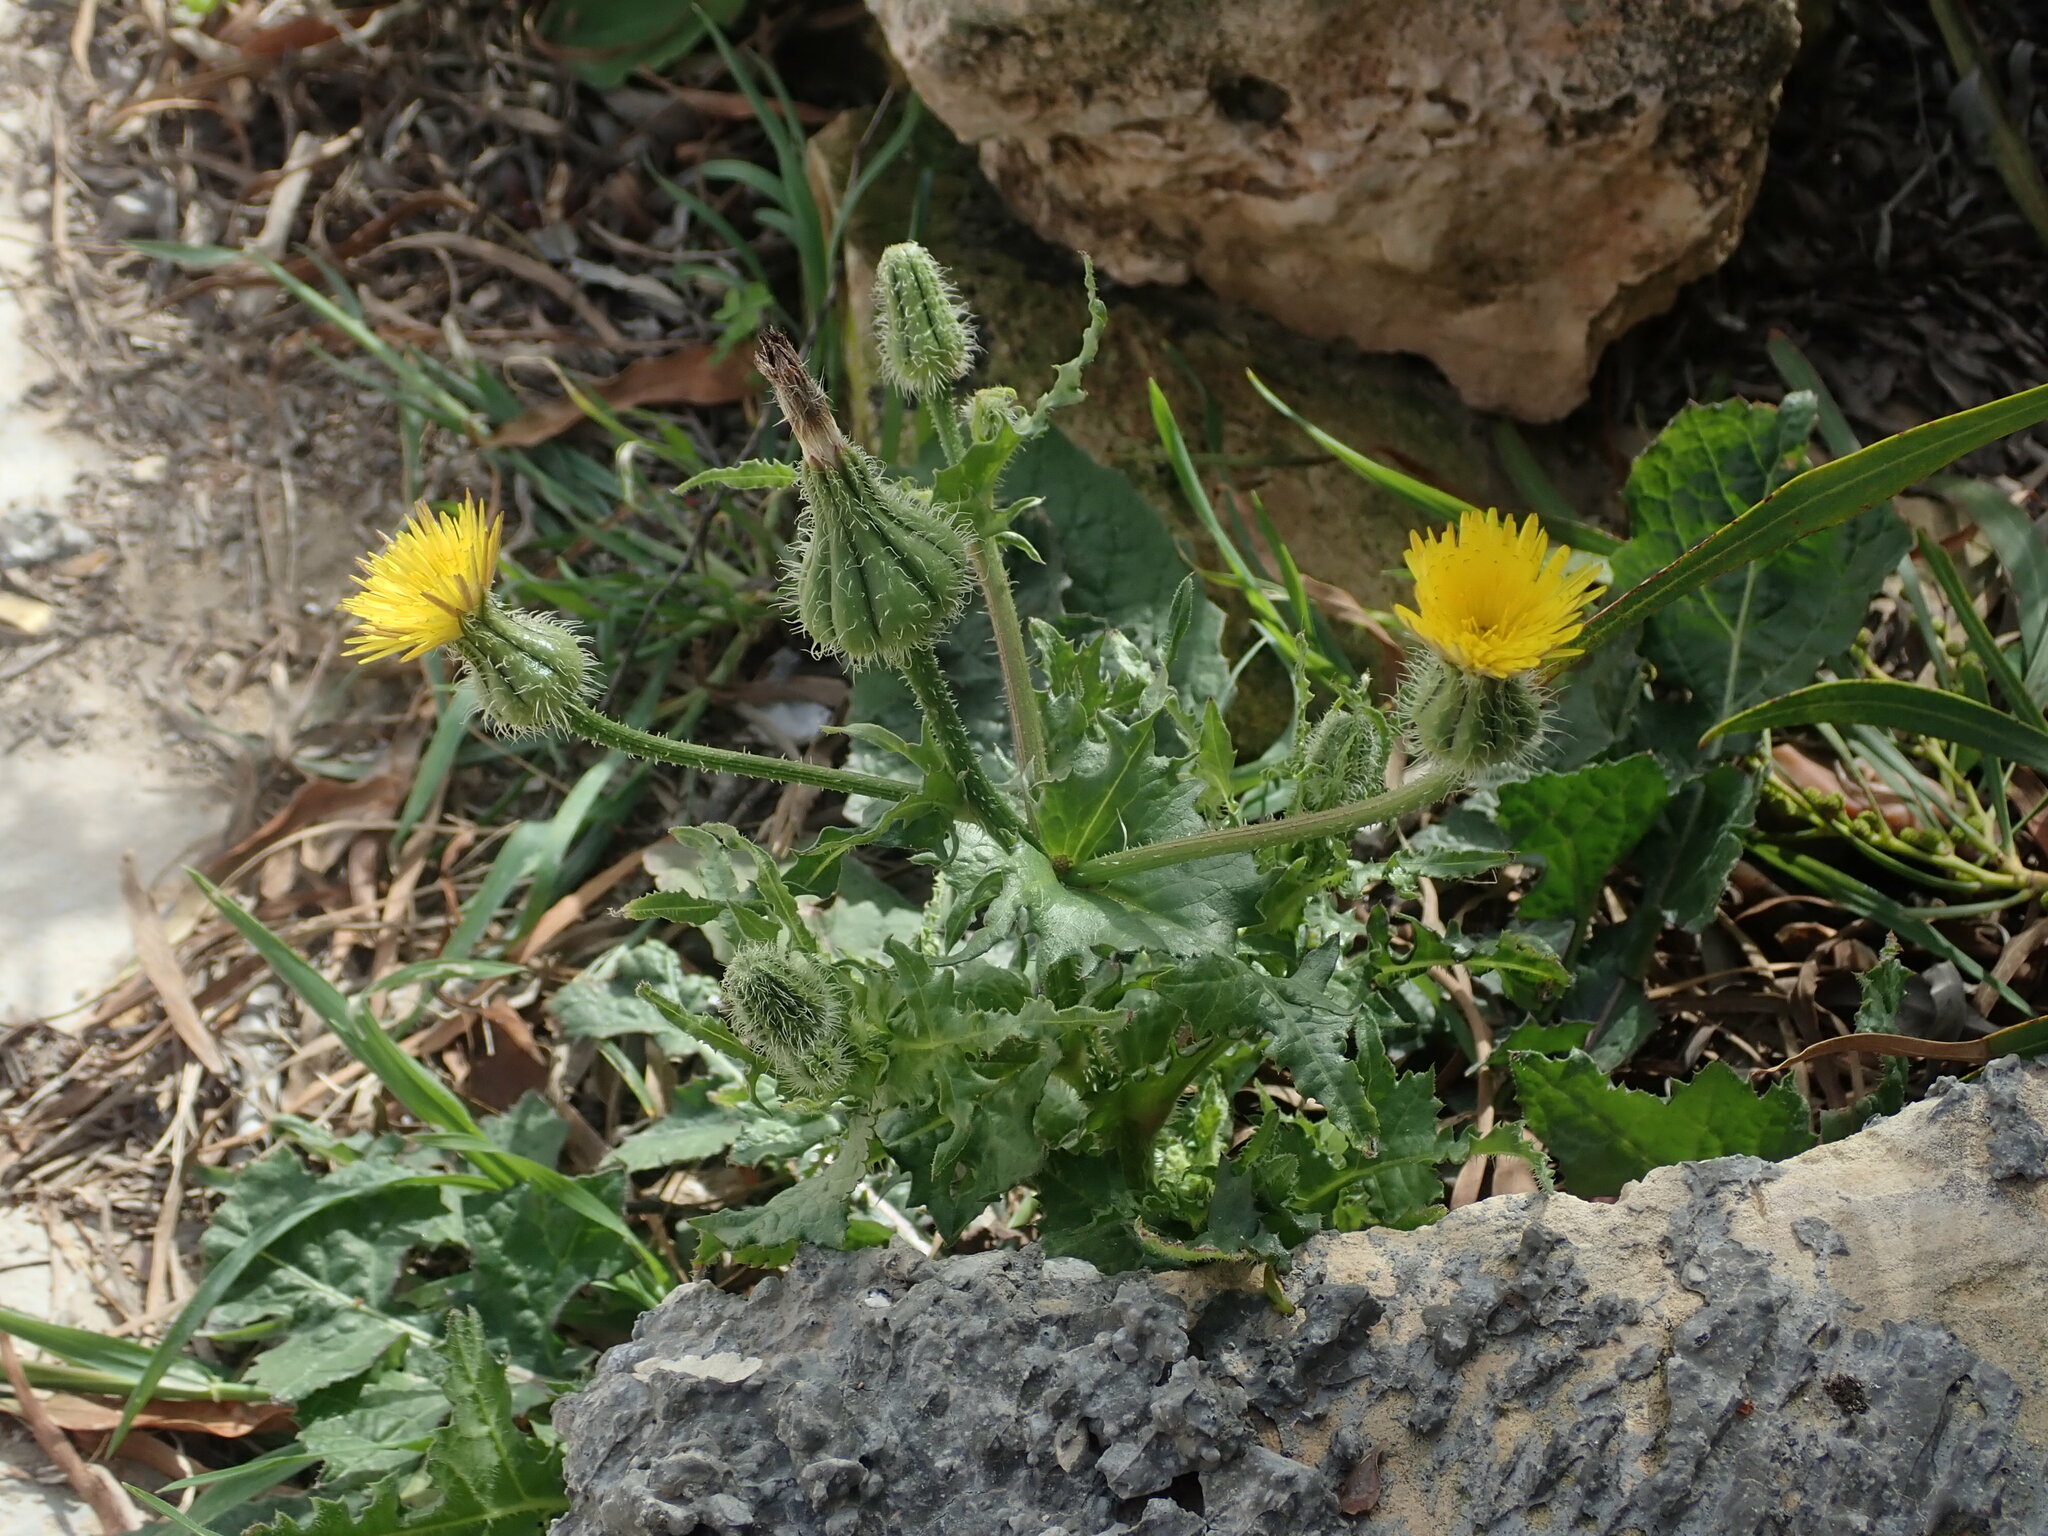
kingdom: Plantae
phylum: Tracheophyta
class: Magnoliopsida
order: Asterales
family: Asteraceae
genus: Urospermum
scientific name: Urospermum picroides
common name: False hawkbit
